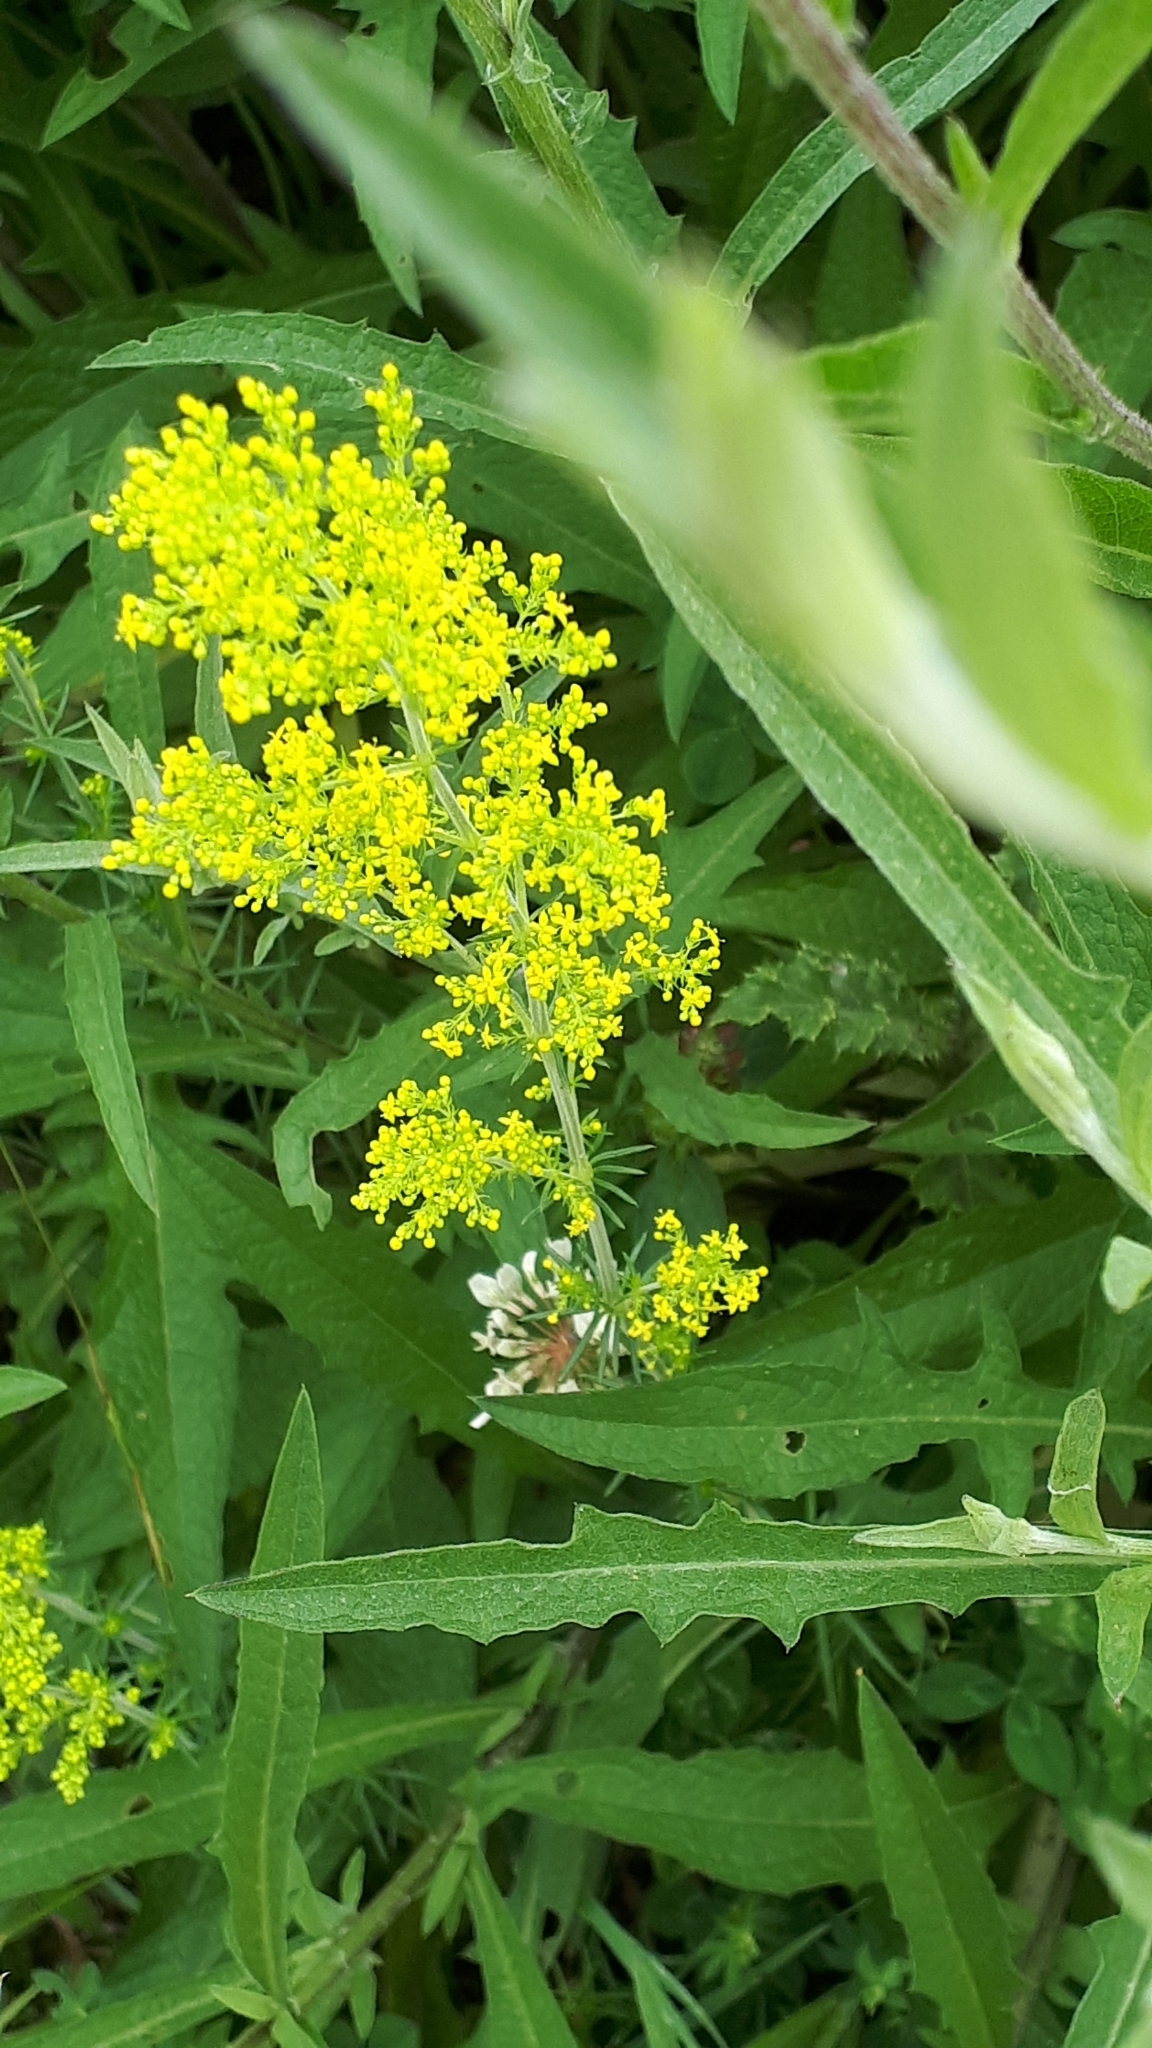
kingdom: Plantae
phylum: Tracheophyta
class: Magnoliopsida
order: Gentianales
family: Rubiaceae
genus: Galium
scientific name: Galium verum
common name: Lady's bedstraw
